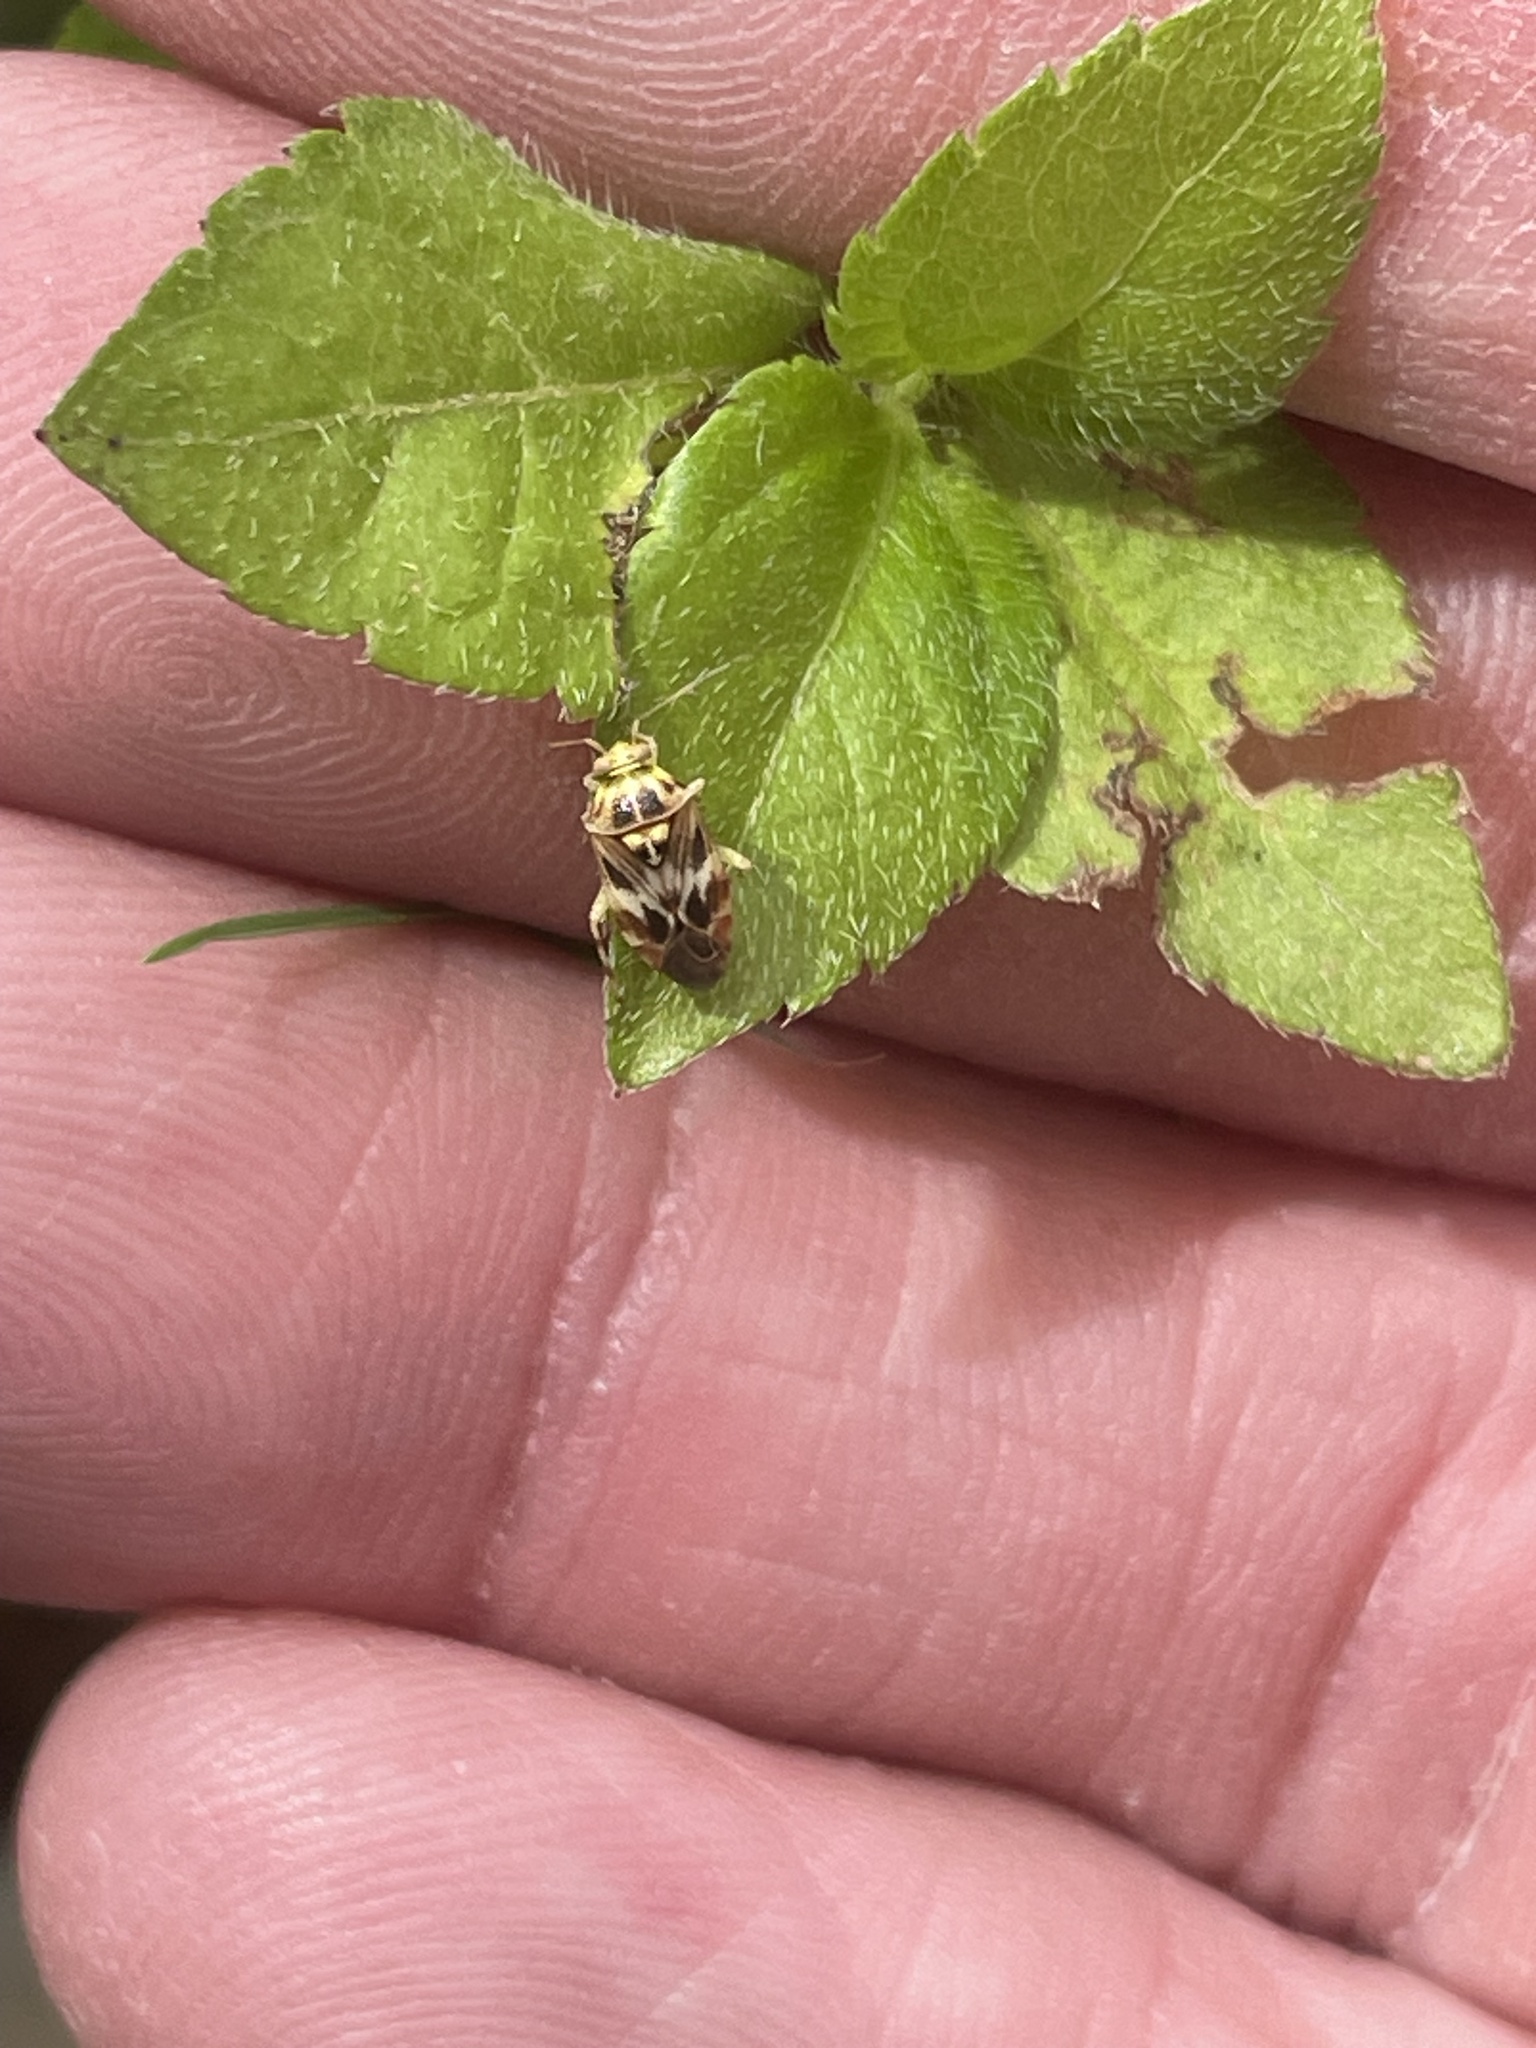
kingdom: Animalia
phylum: Arthropoda
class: Insecta
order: Hemiptera
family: Miridae
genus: Tropidosteptes
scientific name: Tropidosteptes quercicola
